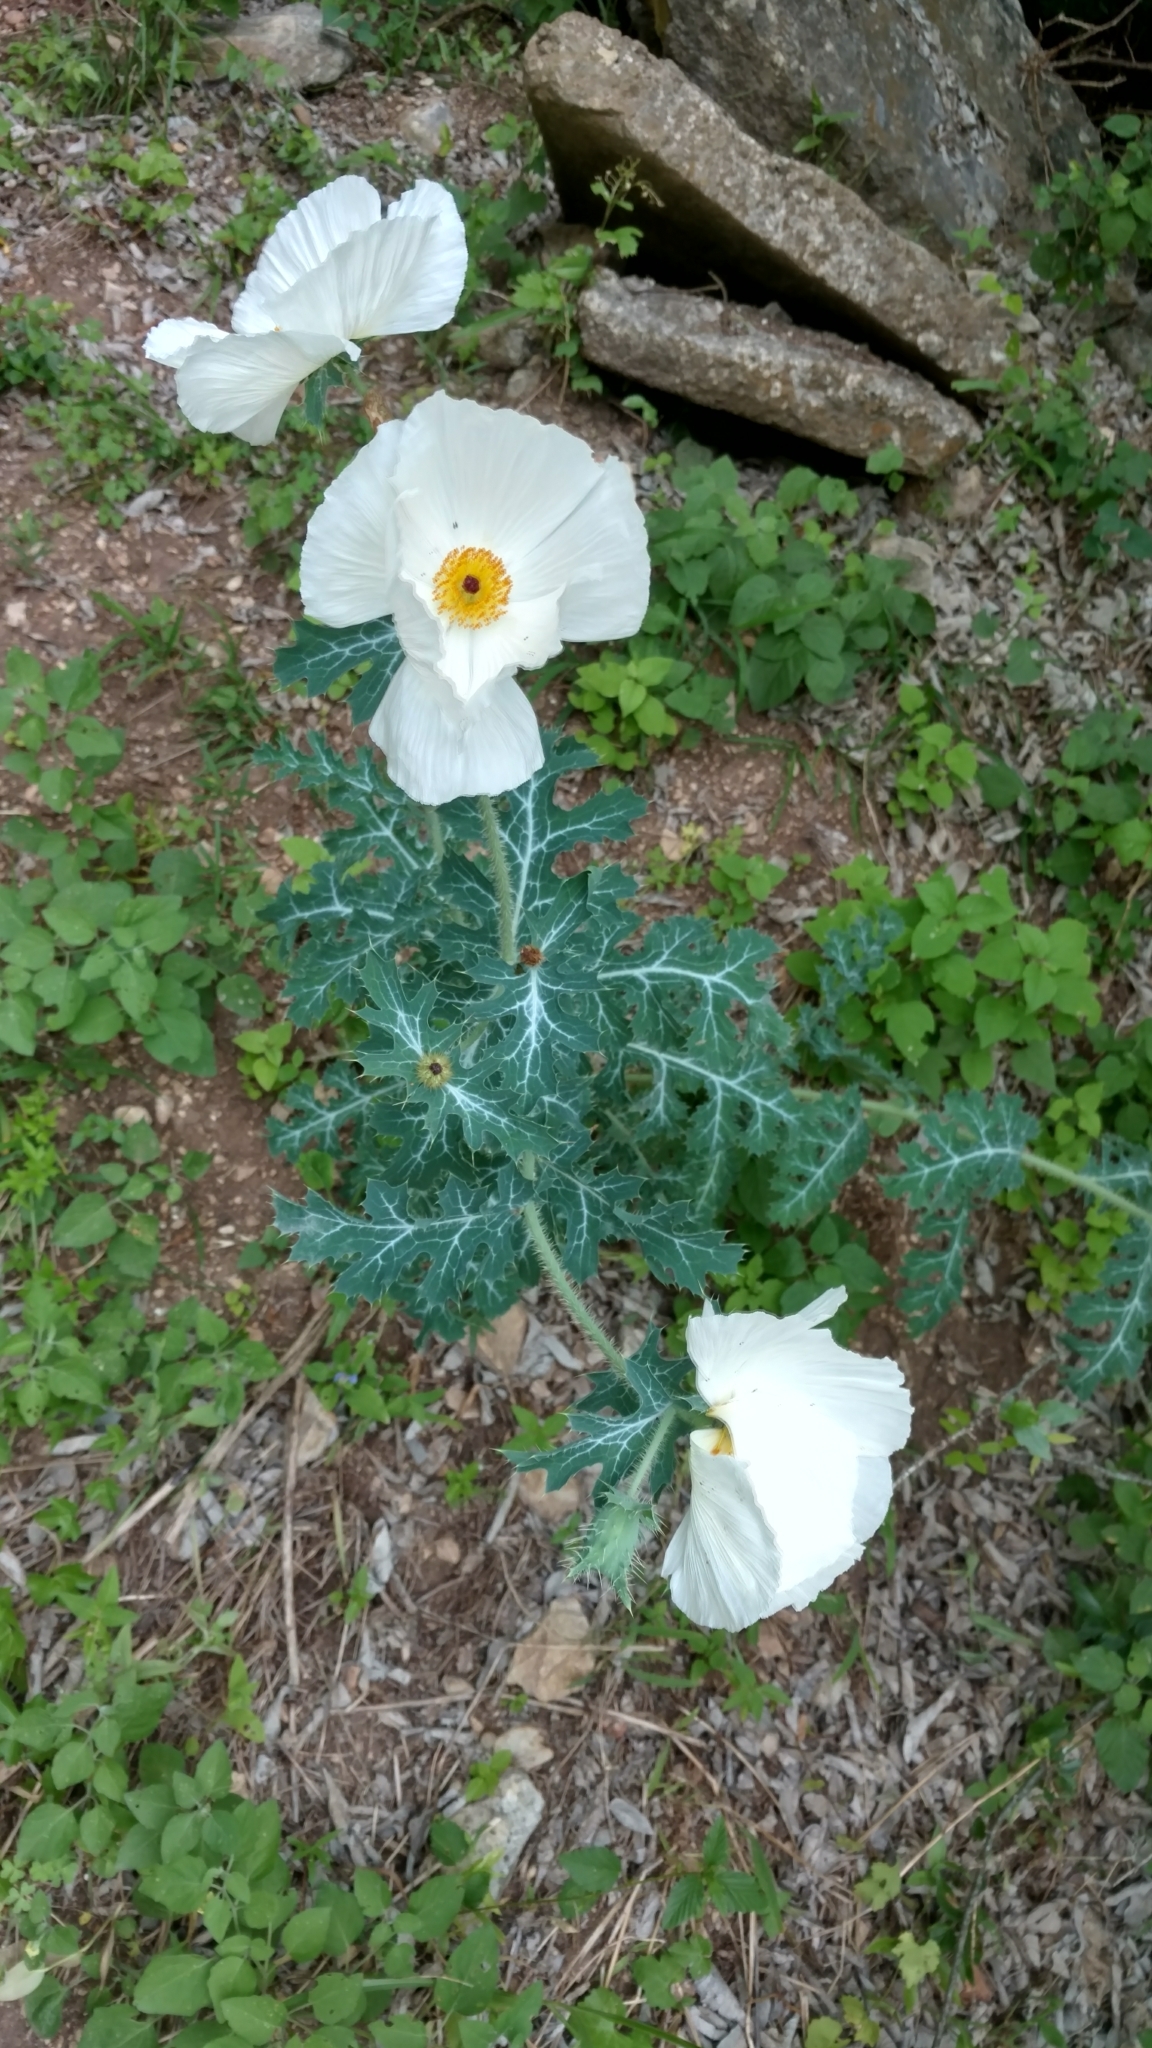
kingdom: Plantae
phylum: Tracheophyta
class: Magnoliopsida
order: Ranunculales
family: Papaveraceae
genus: Argemone
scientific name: Argemone albiflora
